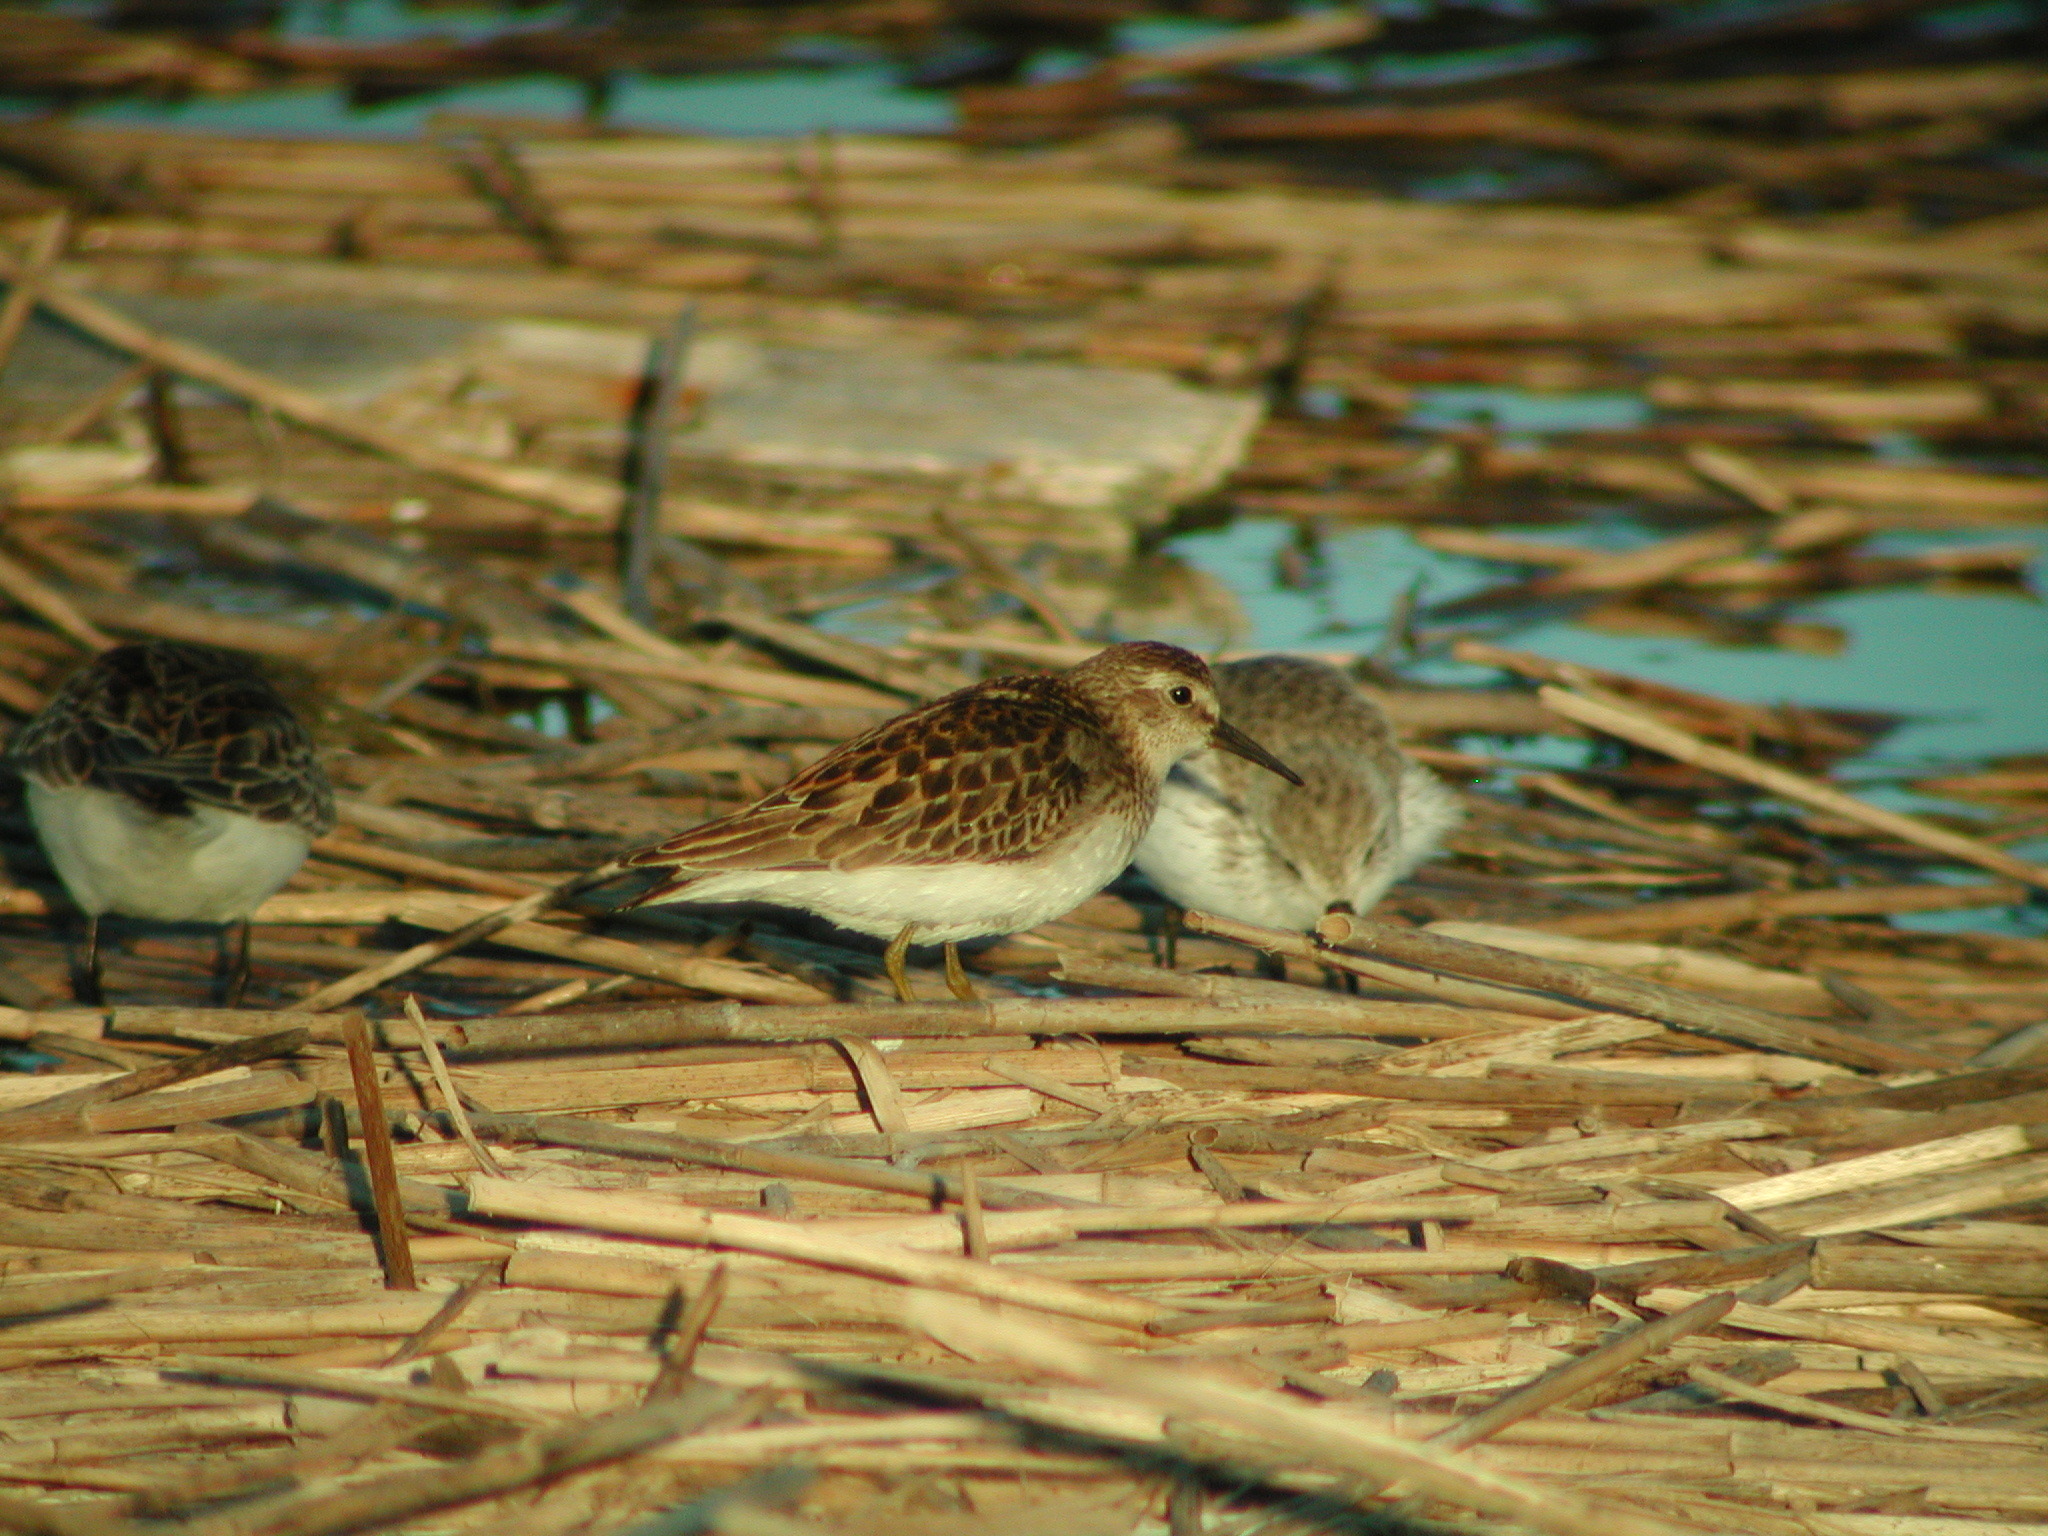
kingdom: Animalia
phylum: Chordata
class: Aves
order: Charadriiformes
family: Scolopacidae
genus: Calidris
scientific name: Calidris minutilla
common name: Least sandpiper
